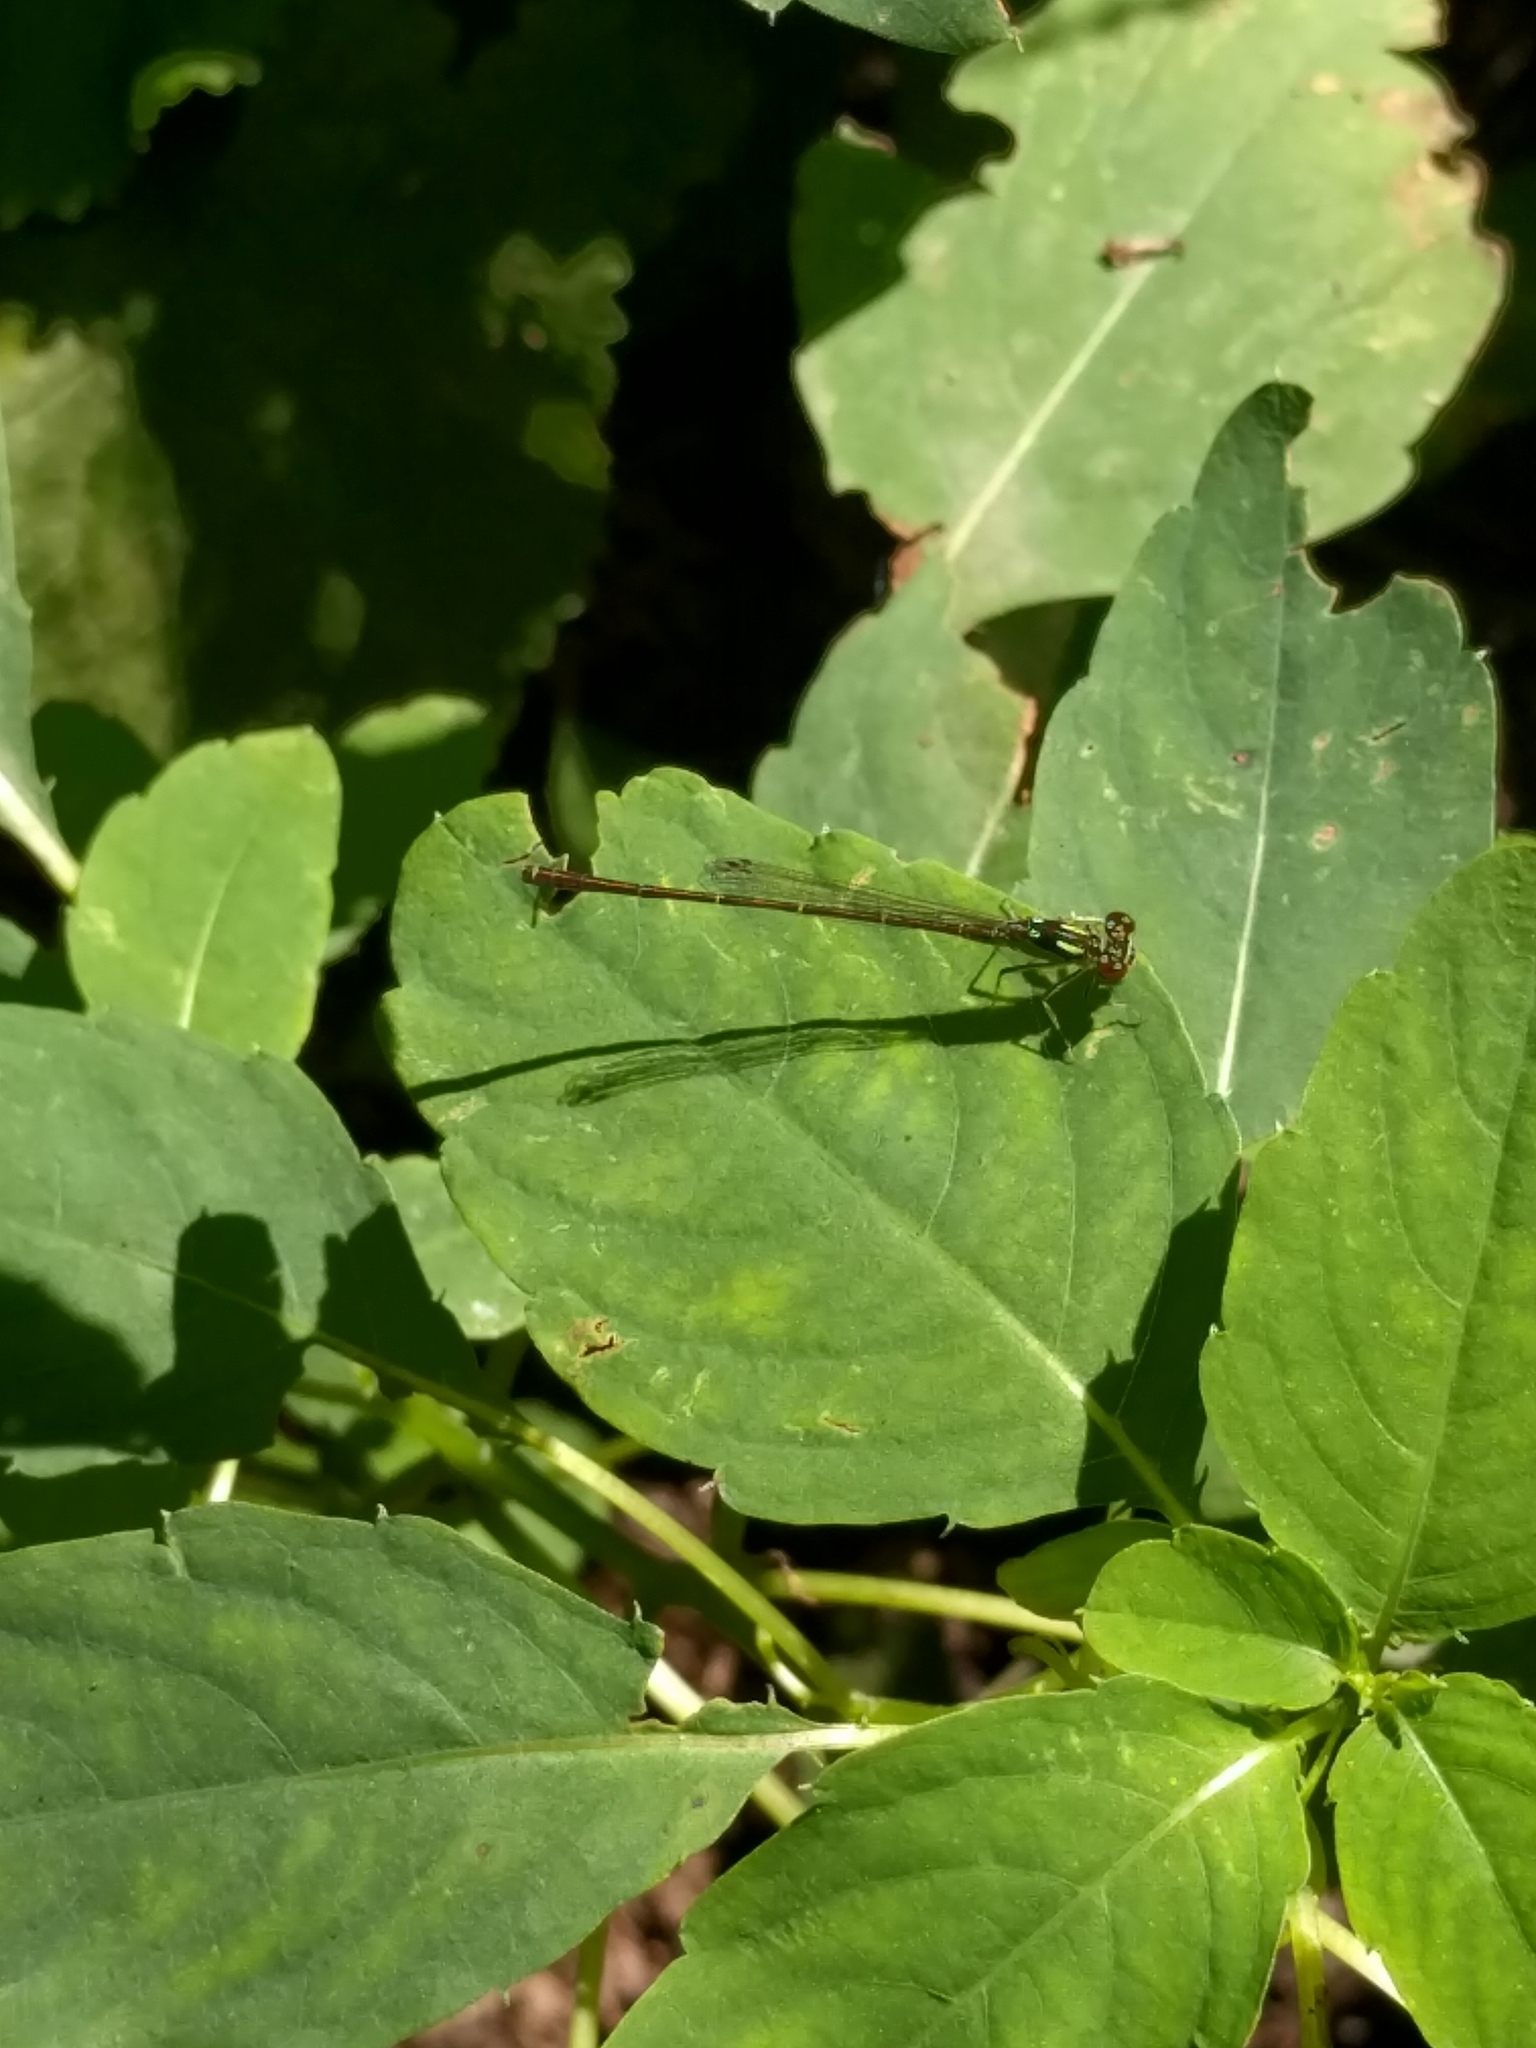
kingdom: Animalia
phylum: Arthropoda
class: Insecta
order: Odonata
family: Coenagrionidae
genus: Ischnura
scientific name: Ischnura posita
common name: Fragile forktail
